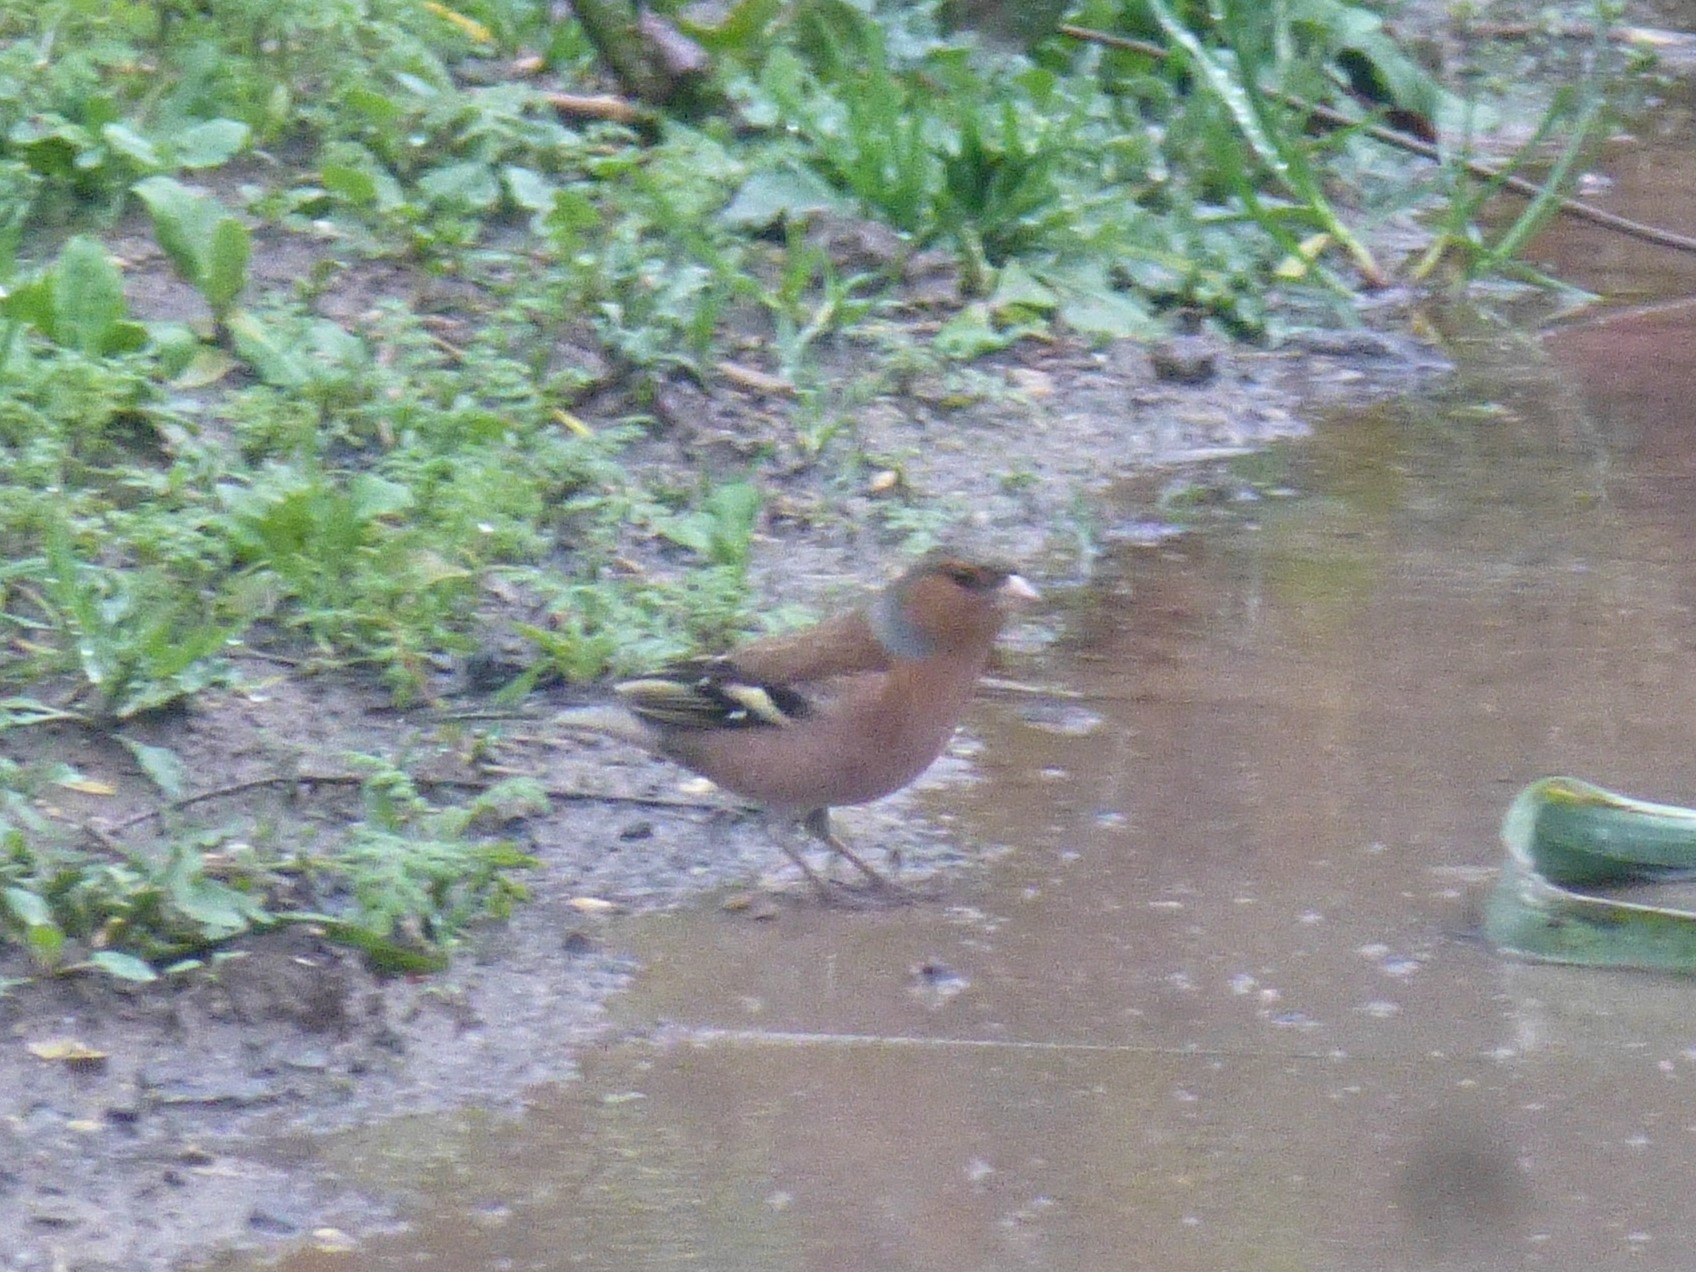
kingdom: Animalia
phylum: Chordata
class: Aves
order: Passeriformes
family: Fringillidae
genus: Fringilla
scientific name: Fringilla coelebs
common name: Common chaffinch
